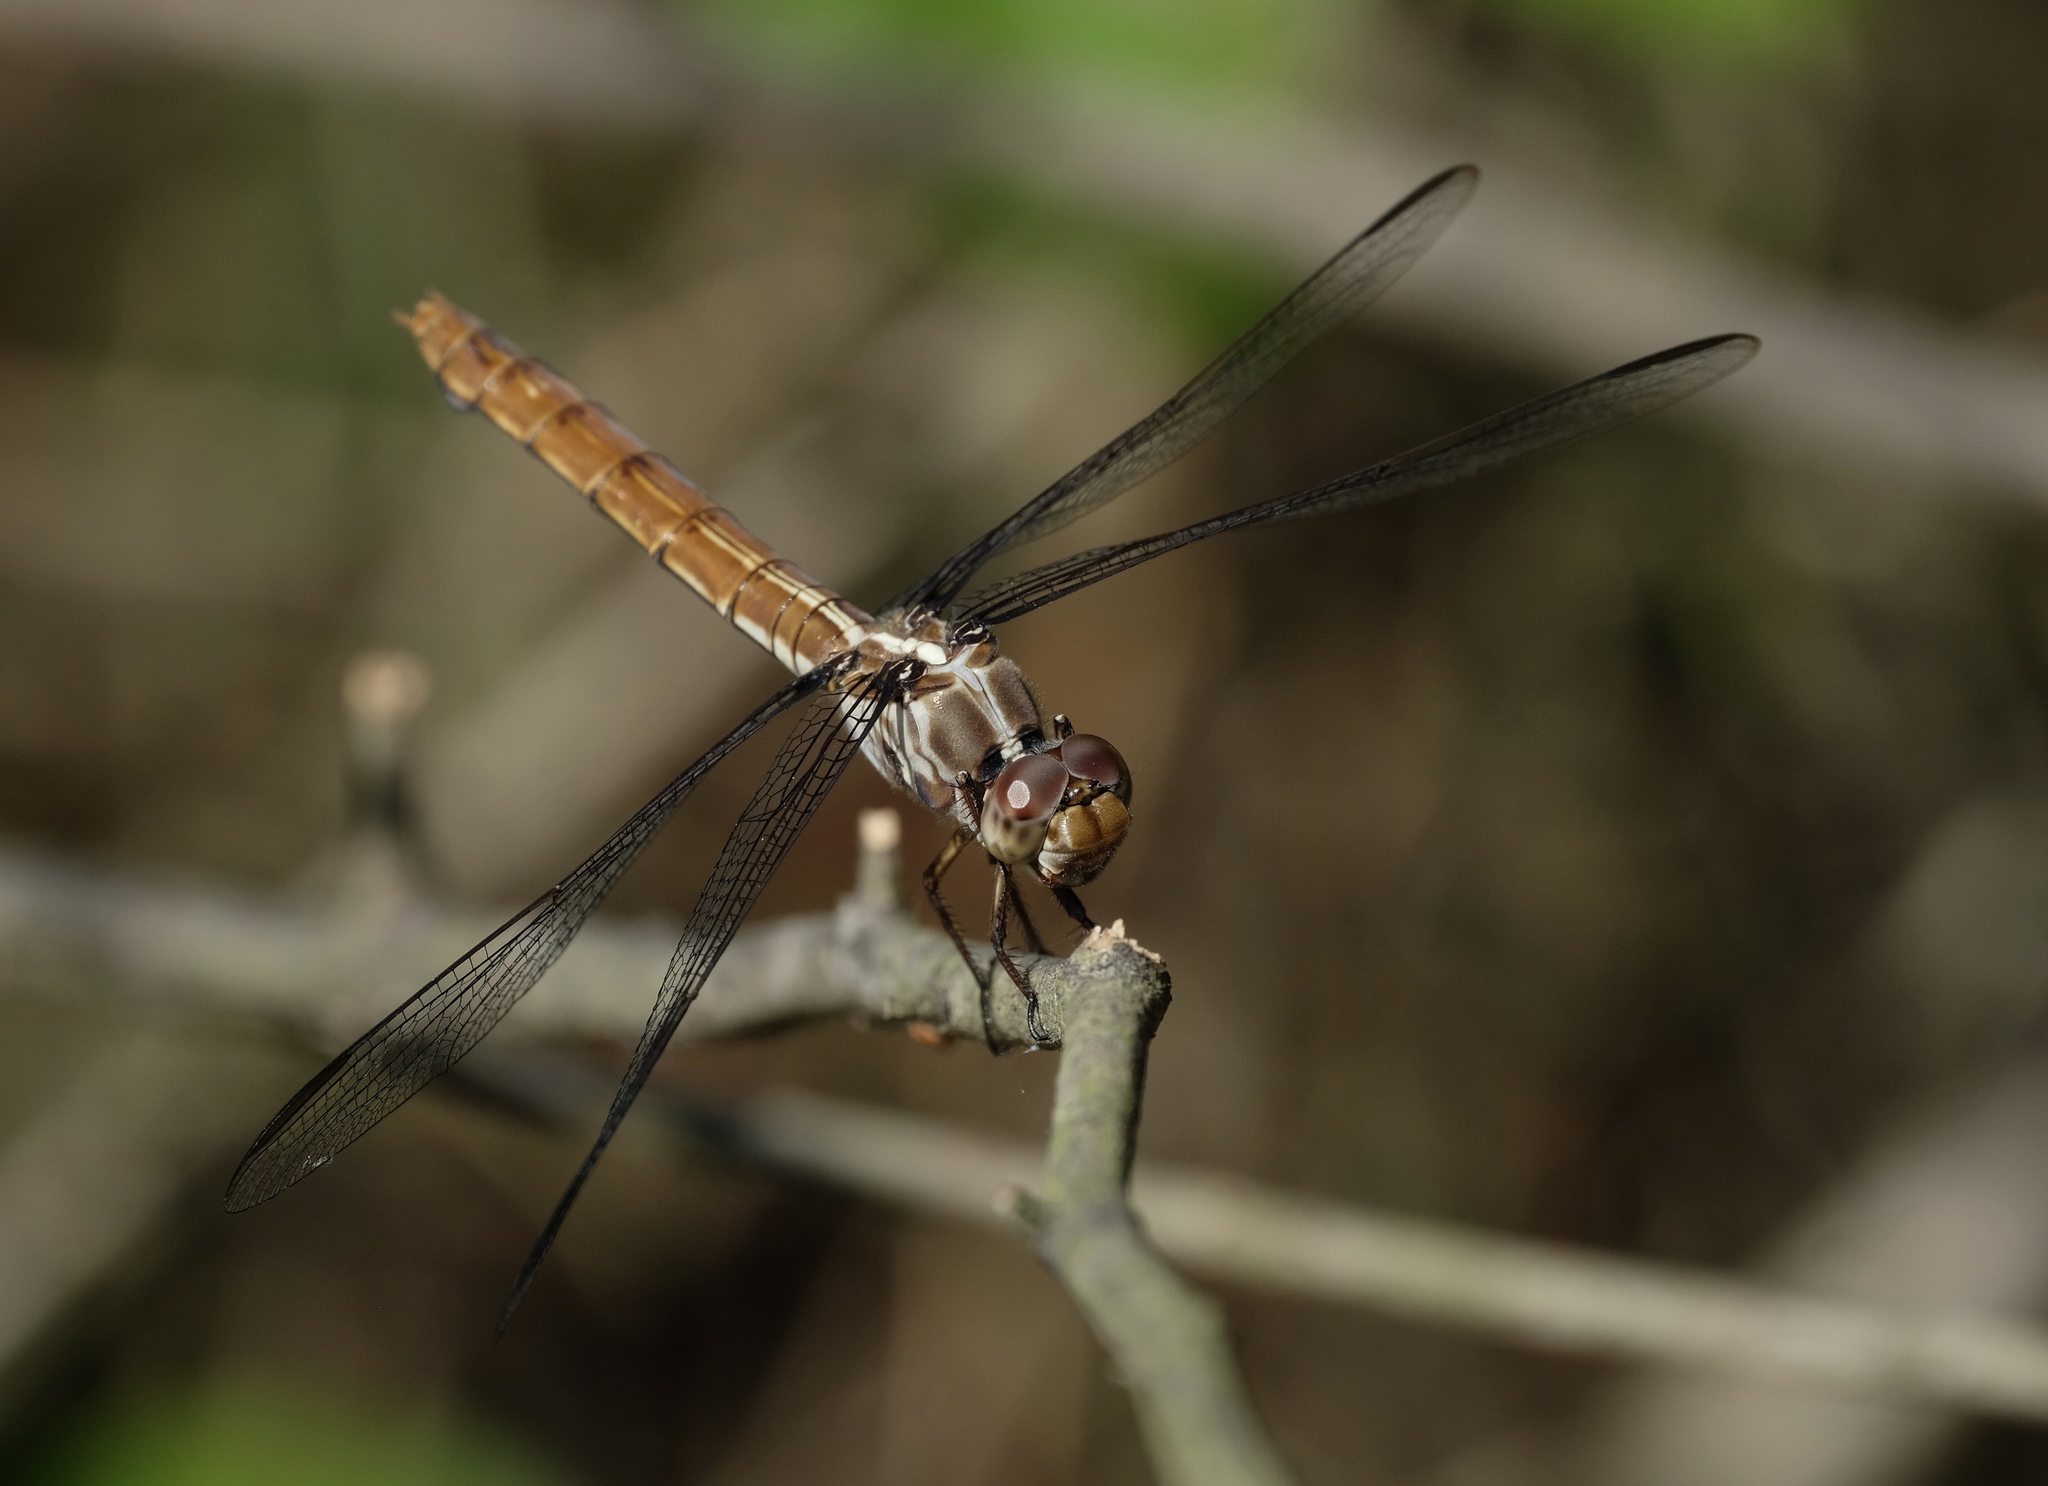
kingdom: Animalia
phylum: Arthropoda
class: Insecta
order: Odonata
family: Libellulidae
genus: Orthemis
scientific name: Orthemis ferruginea
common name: Roseate skimmer
